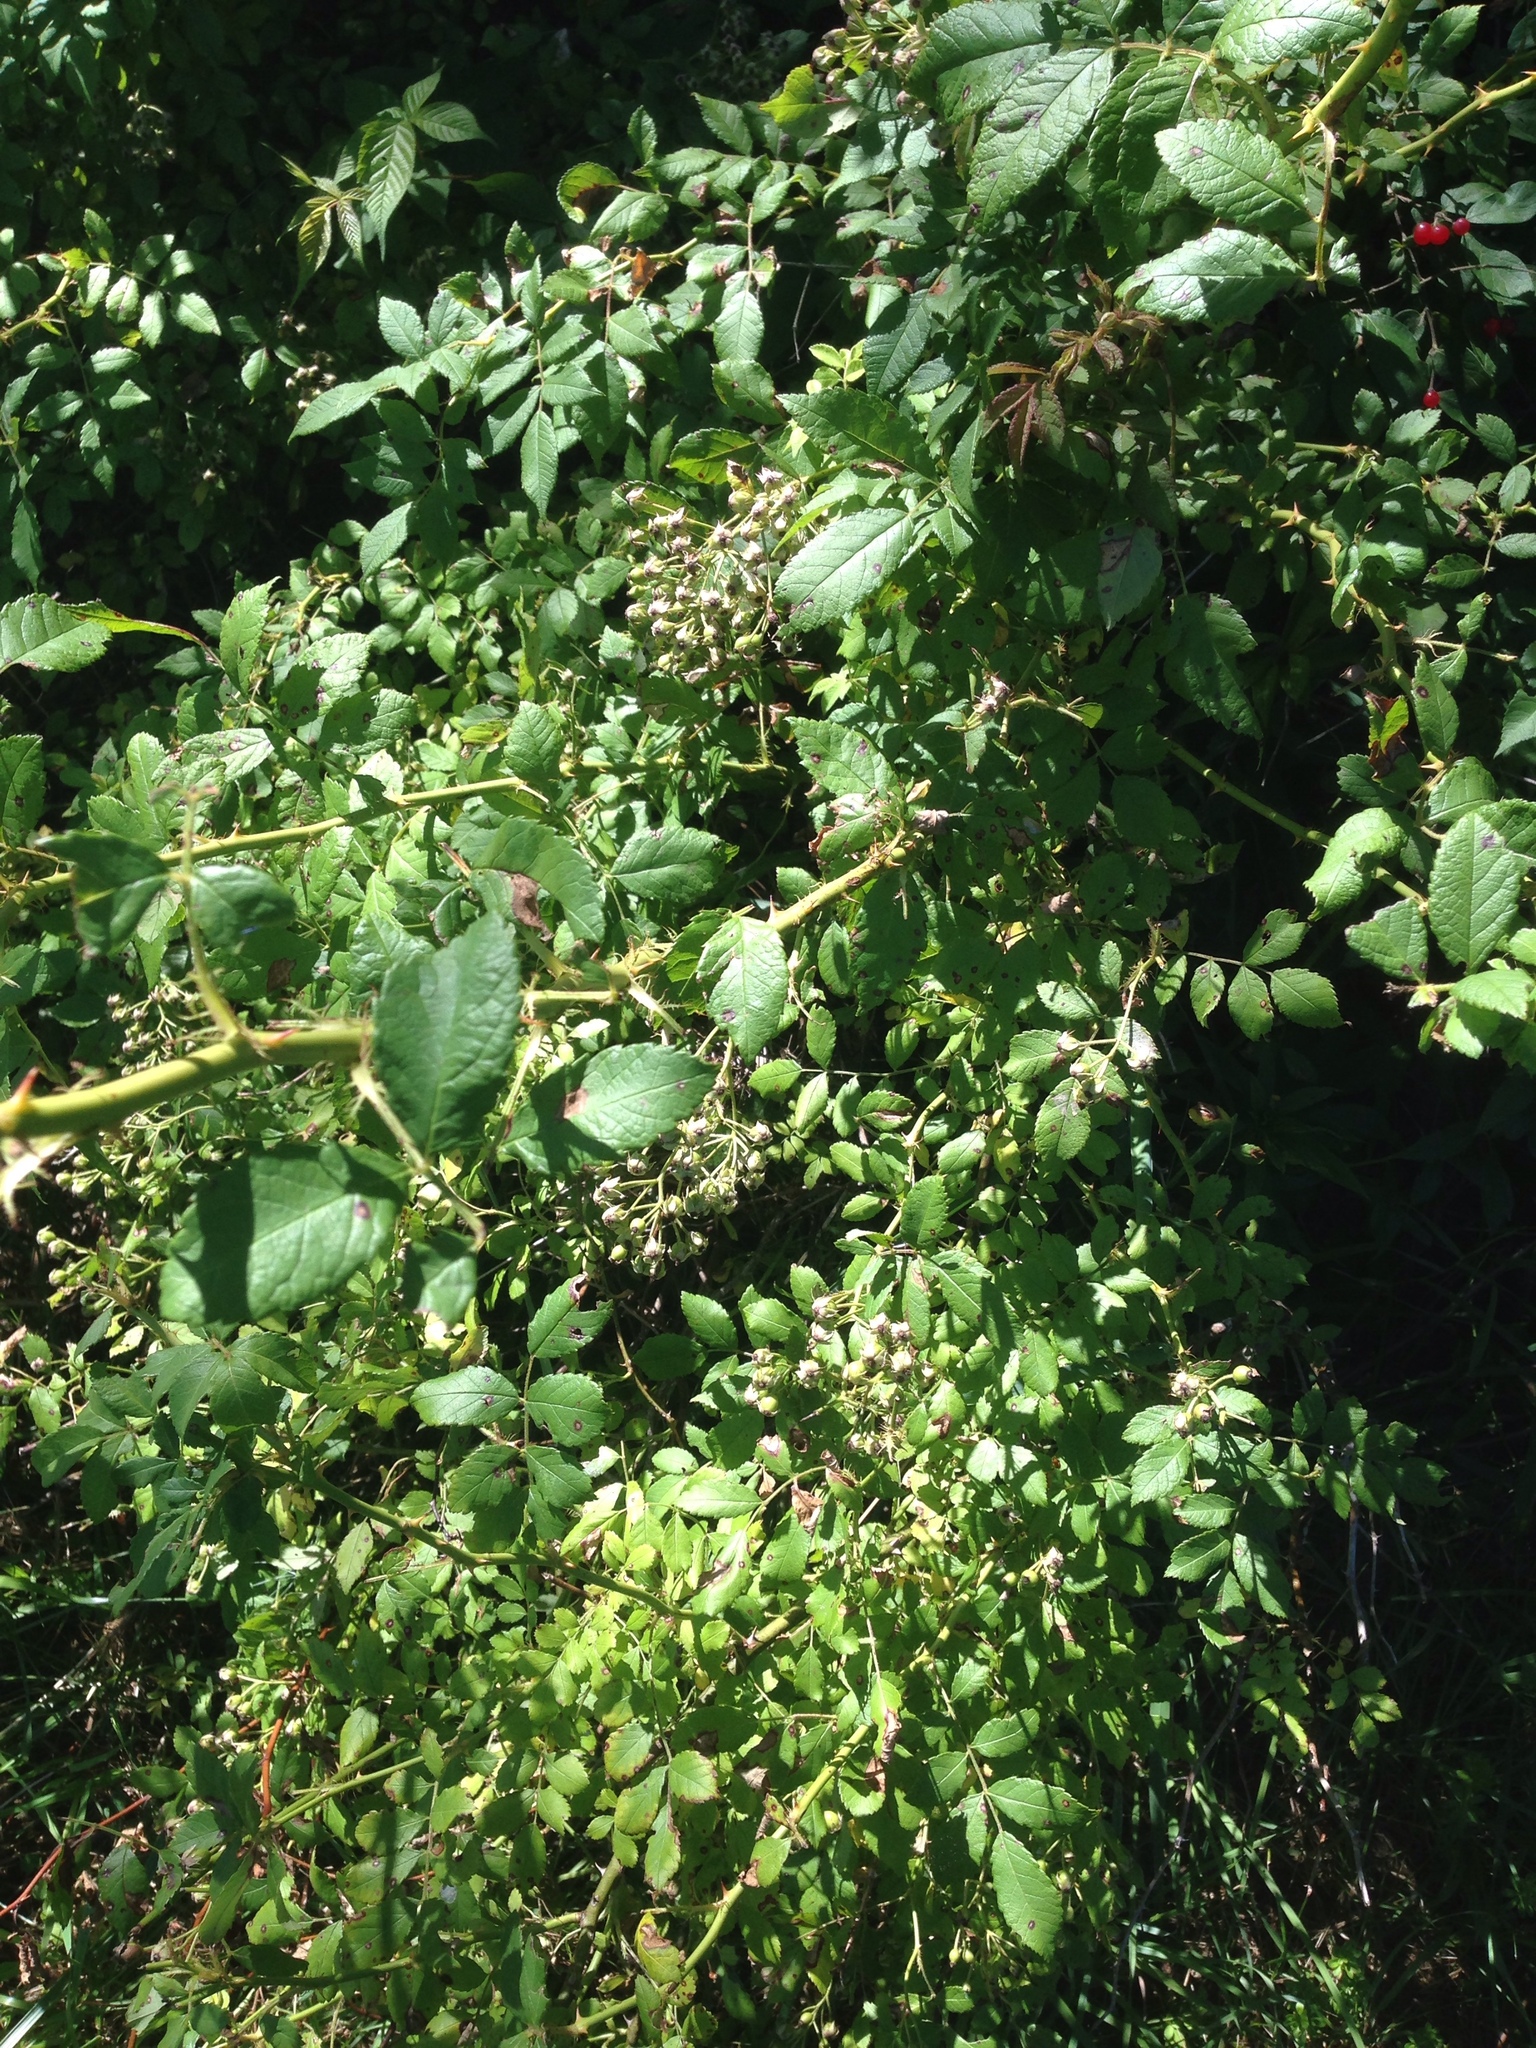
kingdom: Plantae
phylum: Tracheophyta
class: Magnoliopsida
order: Rosales
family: Rosaceae
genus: Rosa
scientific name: Rosa multiflora
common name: Multiflora rose
